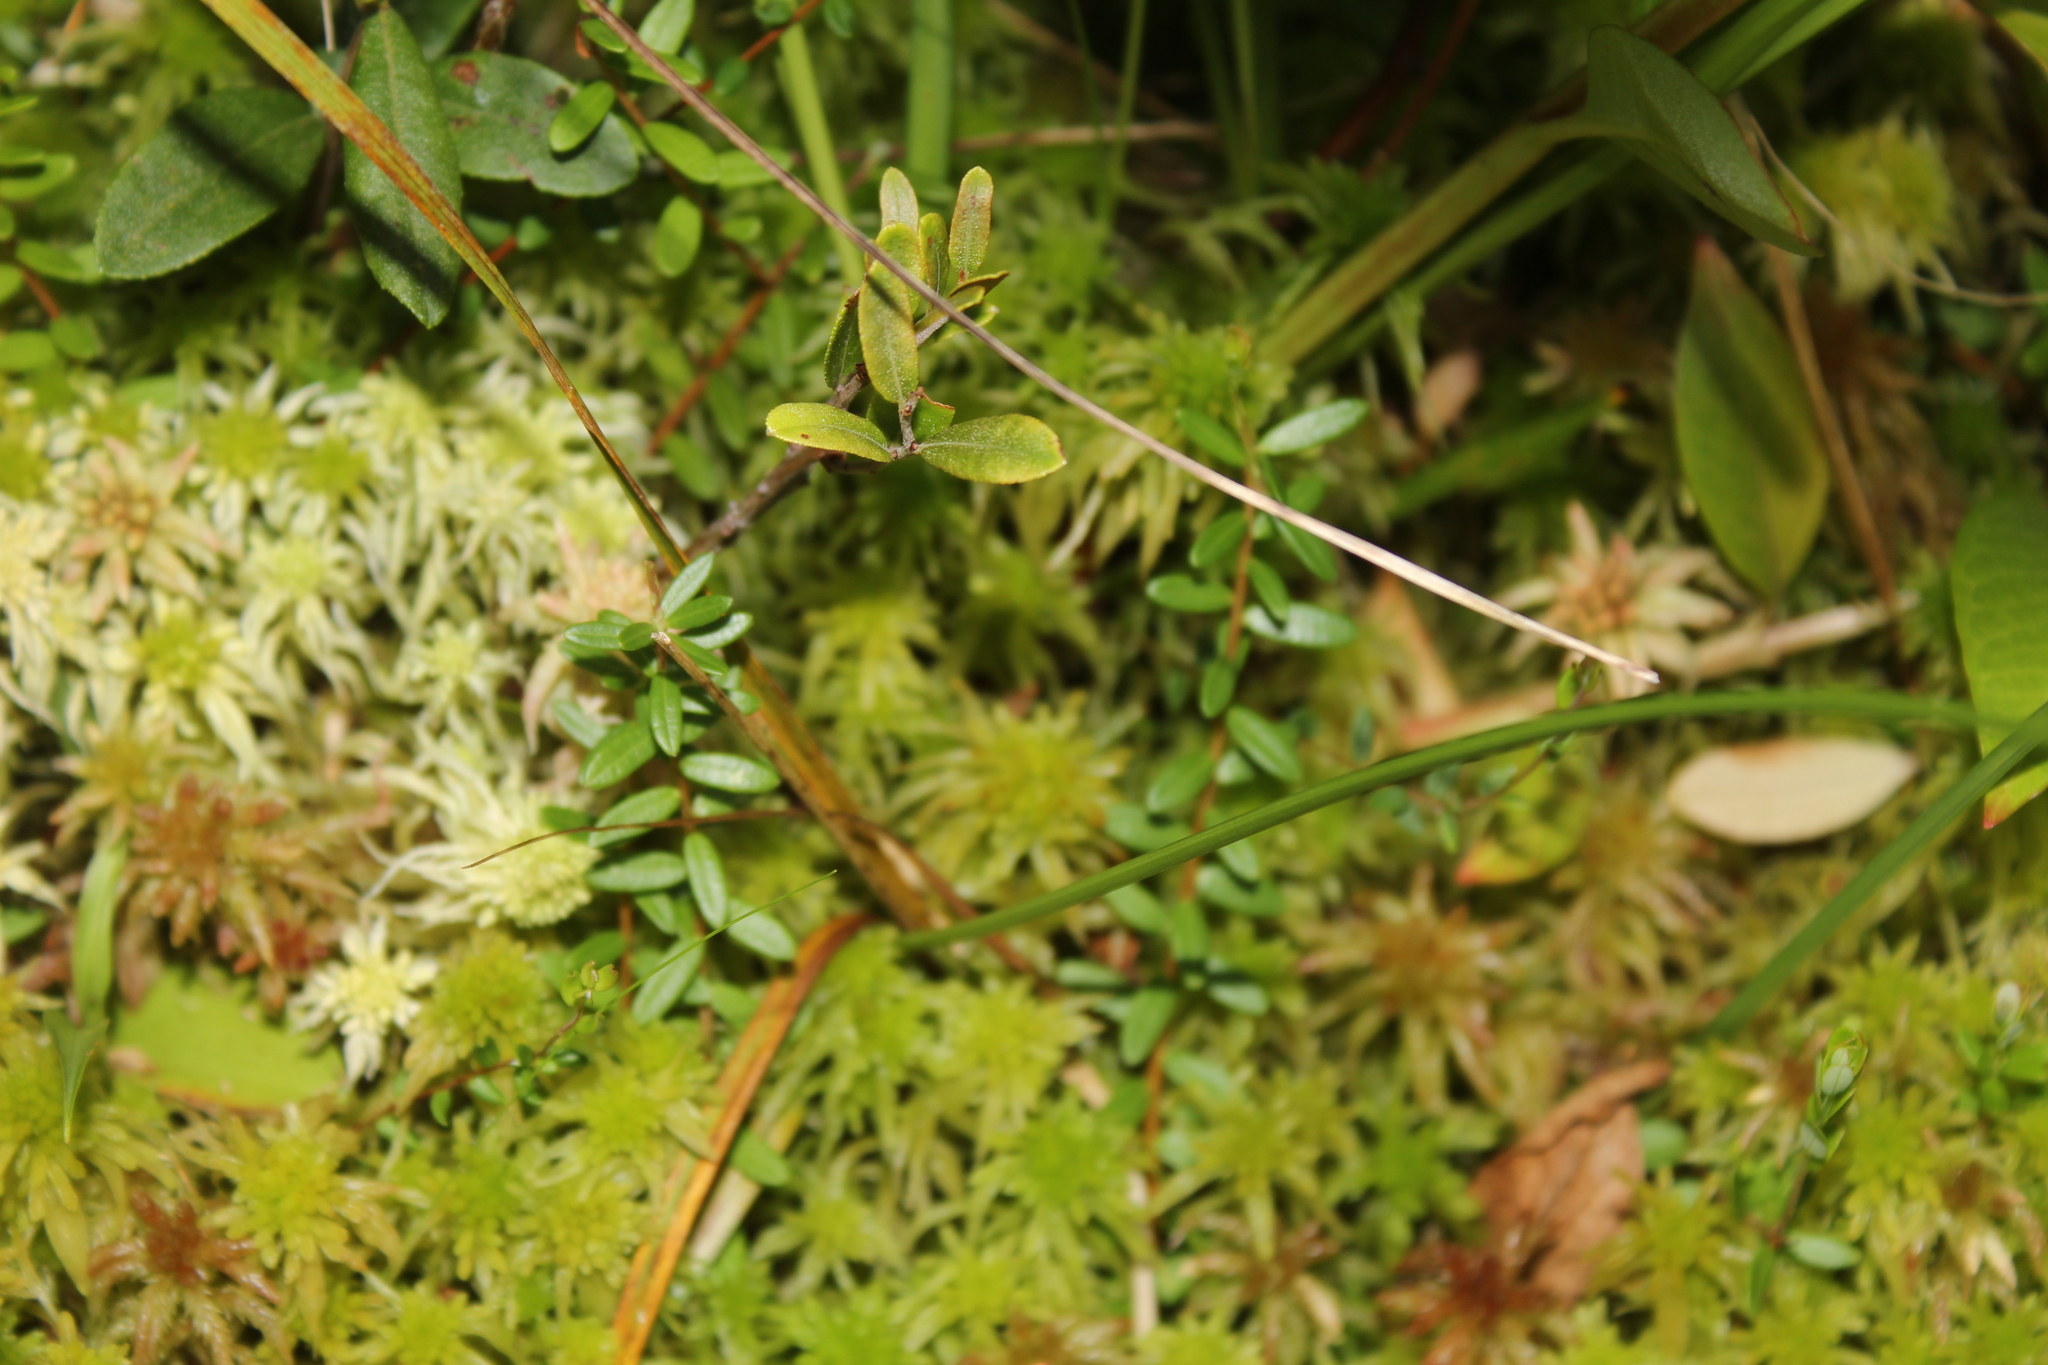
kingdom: Plantae
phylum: Tracheophyta
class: Magnoliopsida
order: Ericales
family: Ericaceae
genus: Vaccinium
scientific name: Vaccinium macrocarpon
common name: American cranberry
